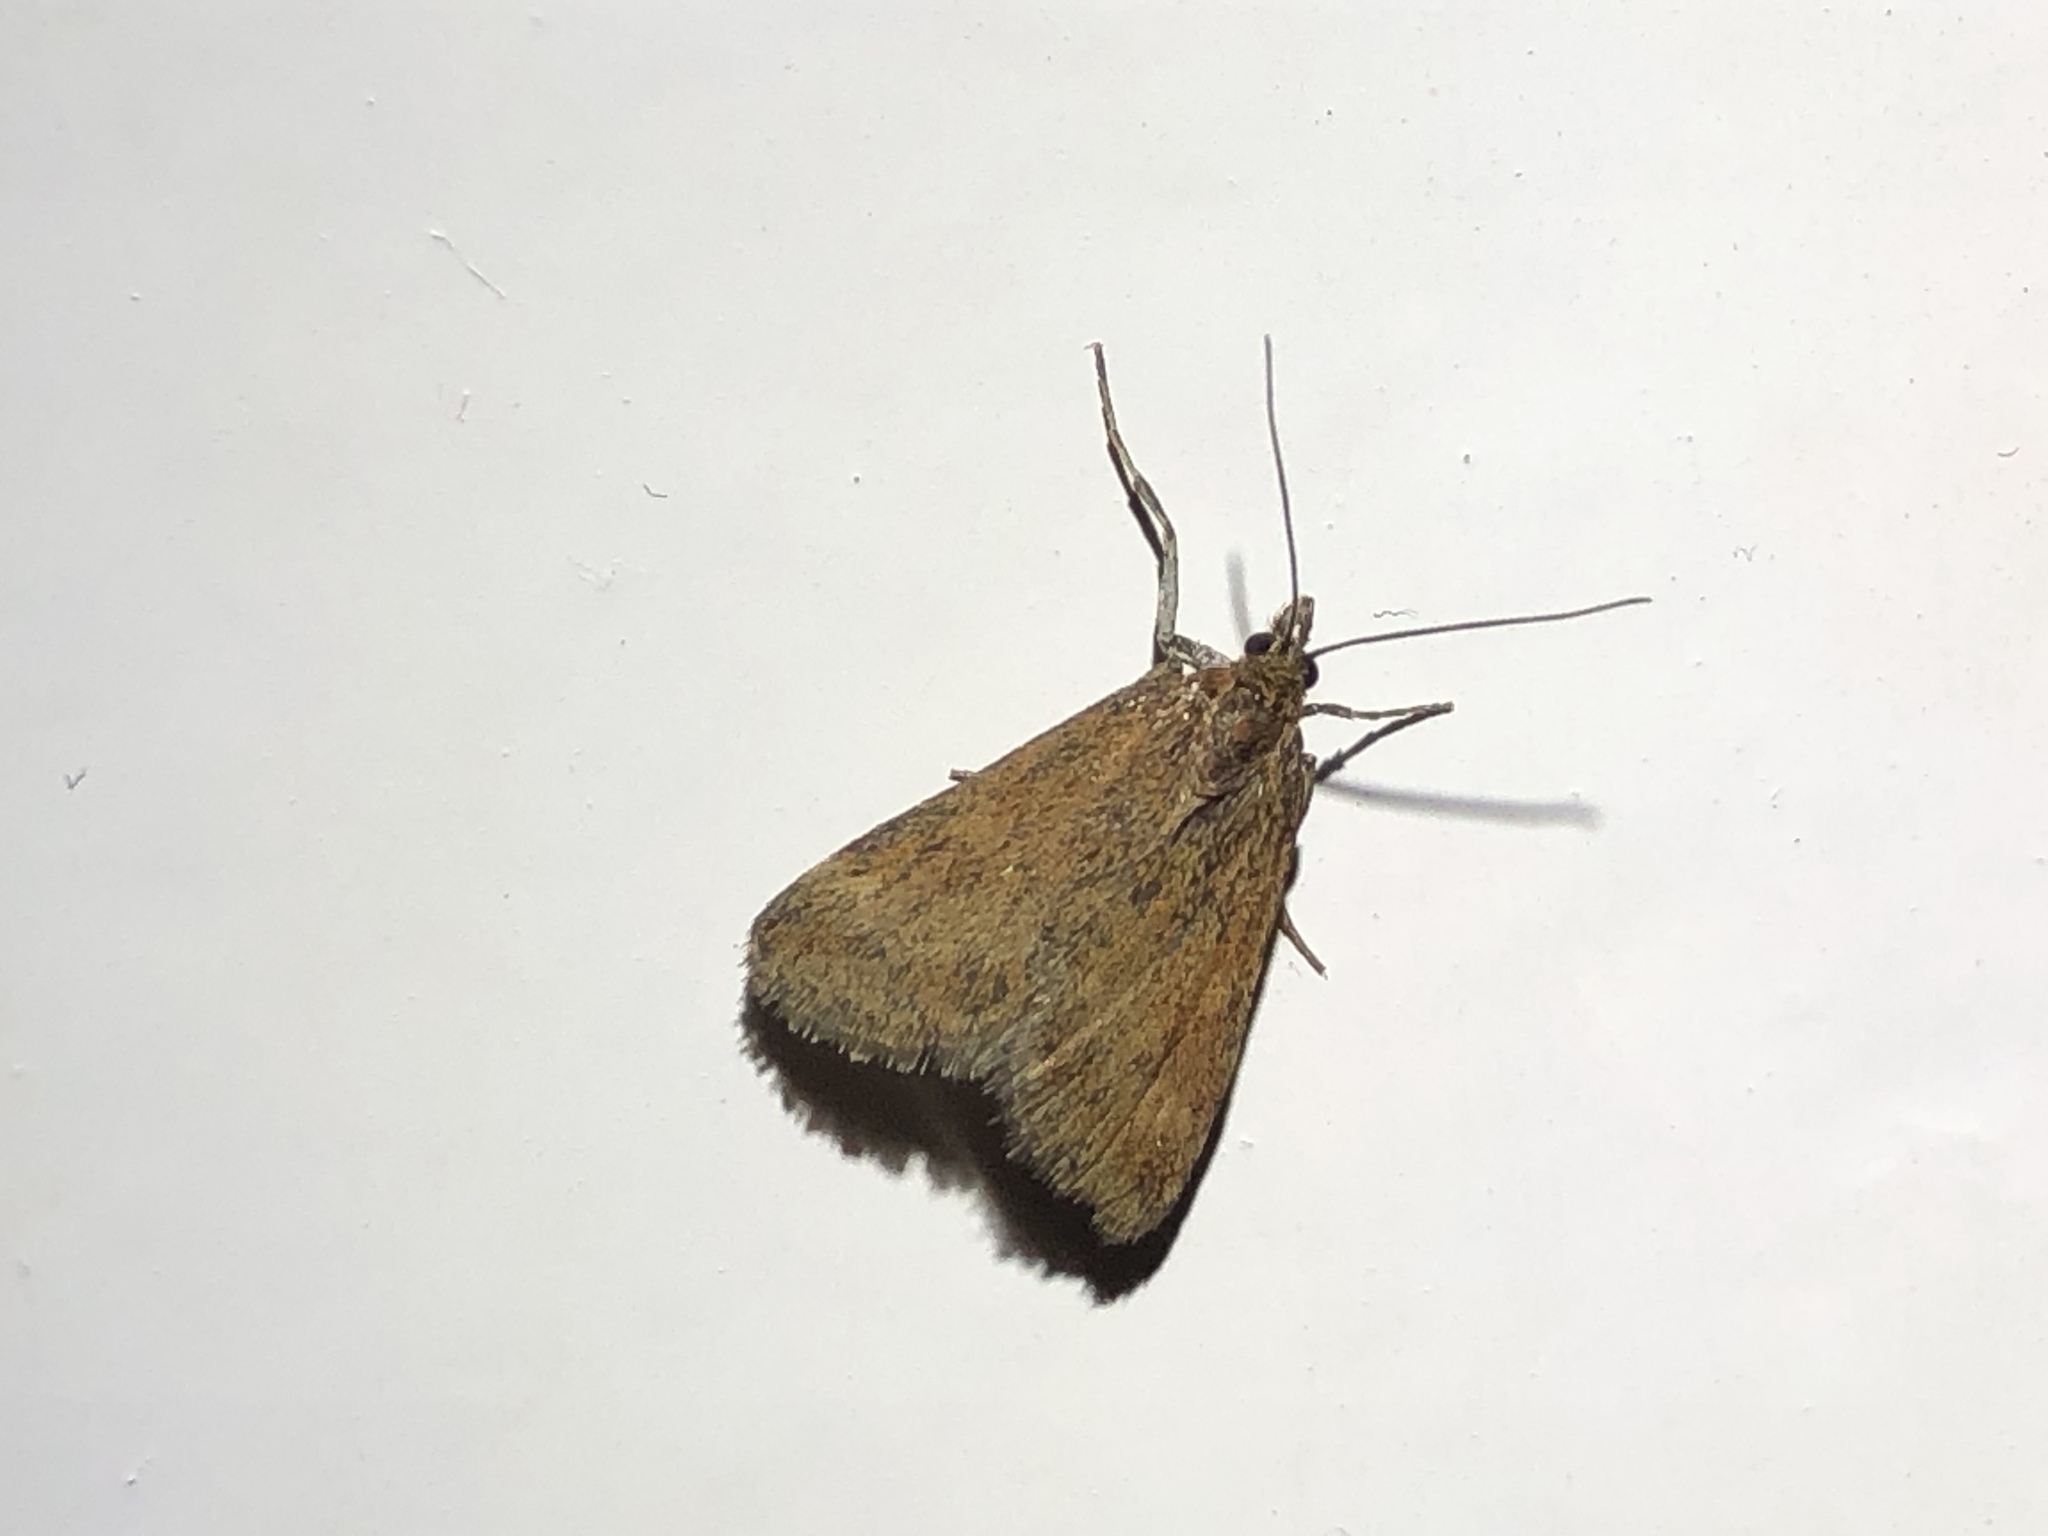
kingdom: Animalia
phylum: Arthropoda
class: Insecta
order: Lepidoptera
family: Crambidae
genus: Pyrausta
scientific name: Pyrausta despicata
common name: Straw-barred pearl
